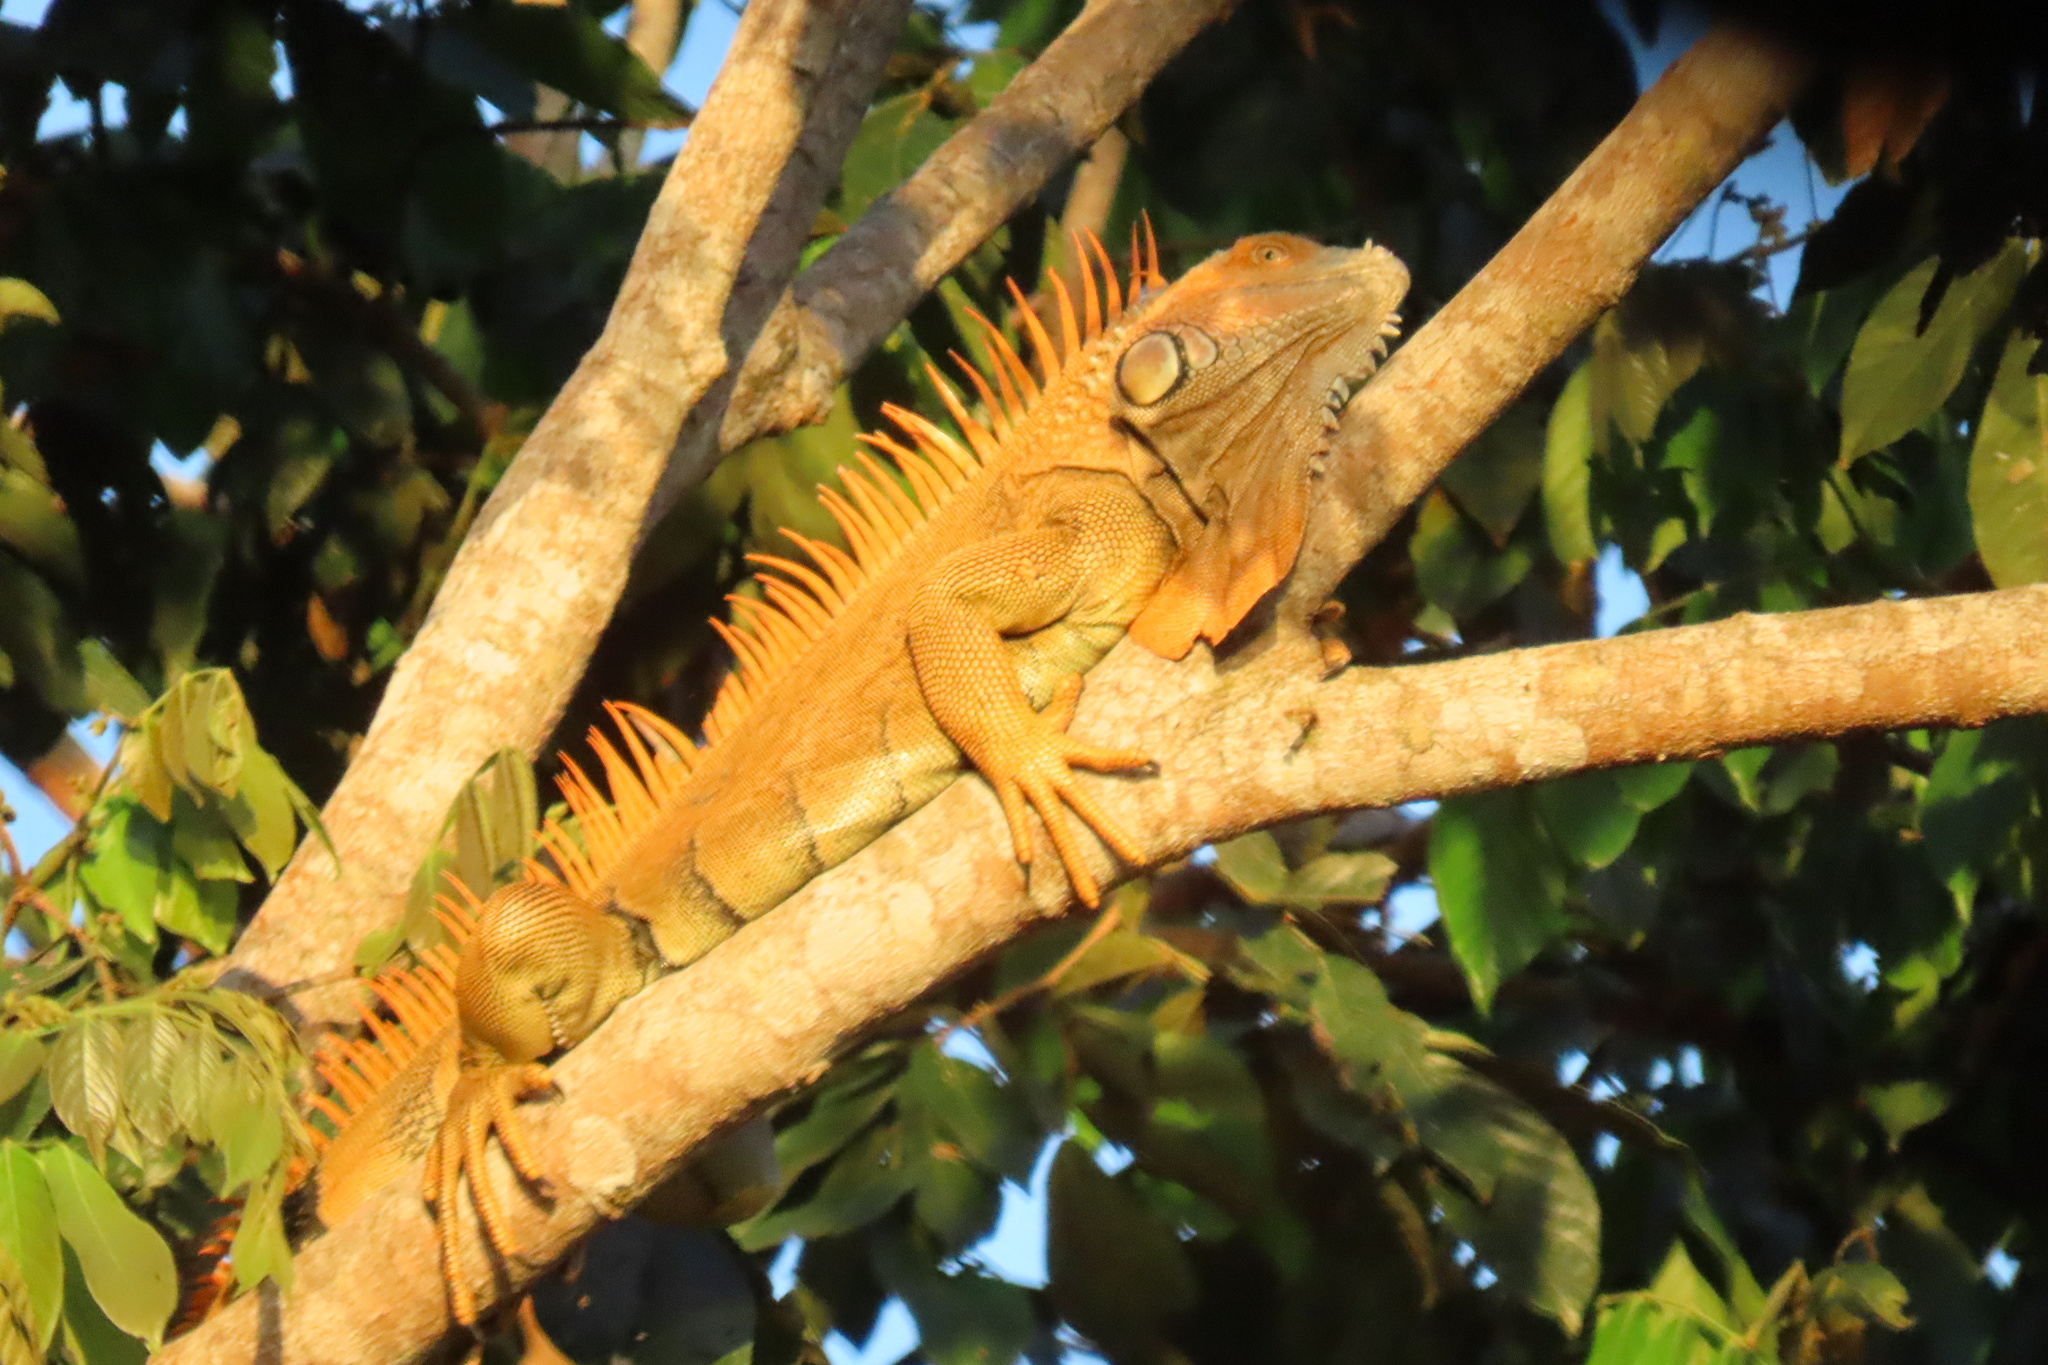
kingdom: Animalia
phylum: Chordata
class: Squamata
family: Iguanidae
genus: Iguana
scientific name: Iguana iguana
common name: Green iguana
